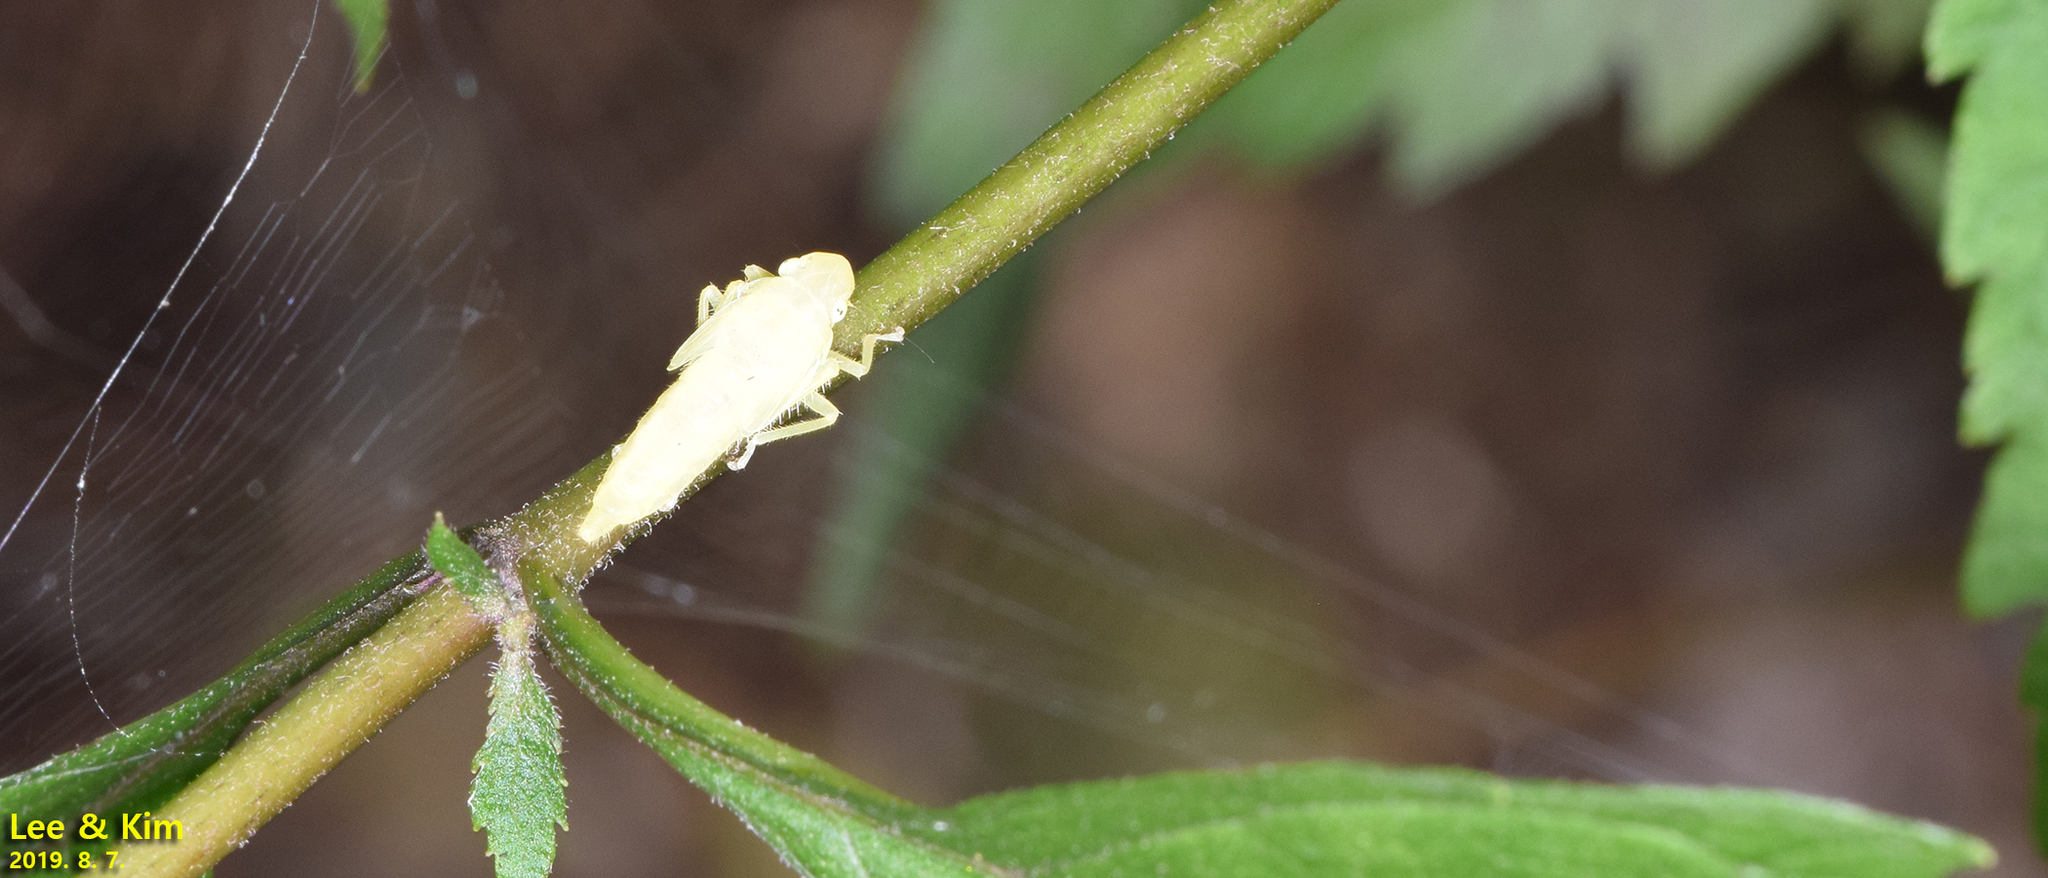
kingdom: Animalia
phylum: Arthropoda
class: Insecta
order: Hemiptera
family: Cicadellidae
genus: Bothrogonia
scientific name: Bothrogonia ferruginea
